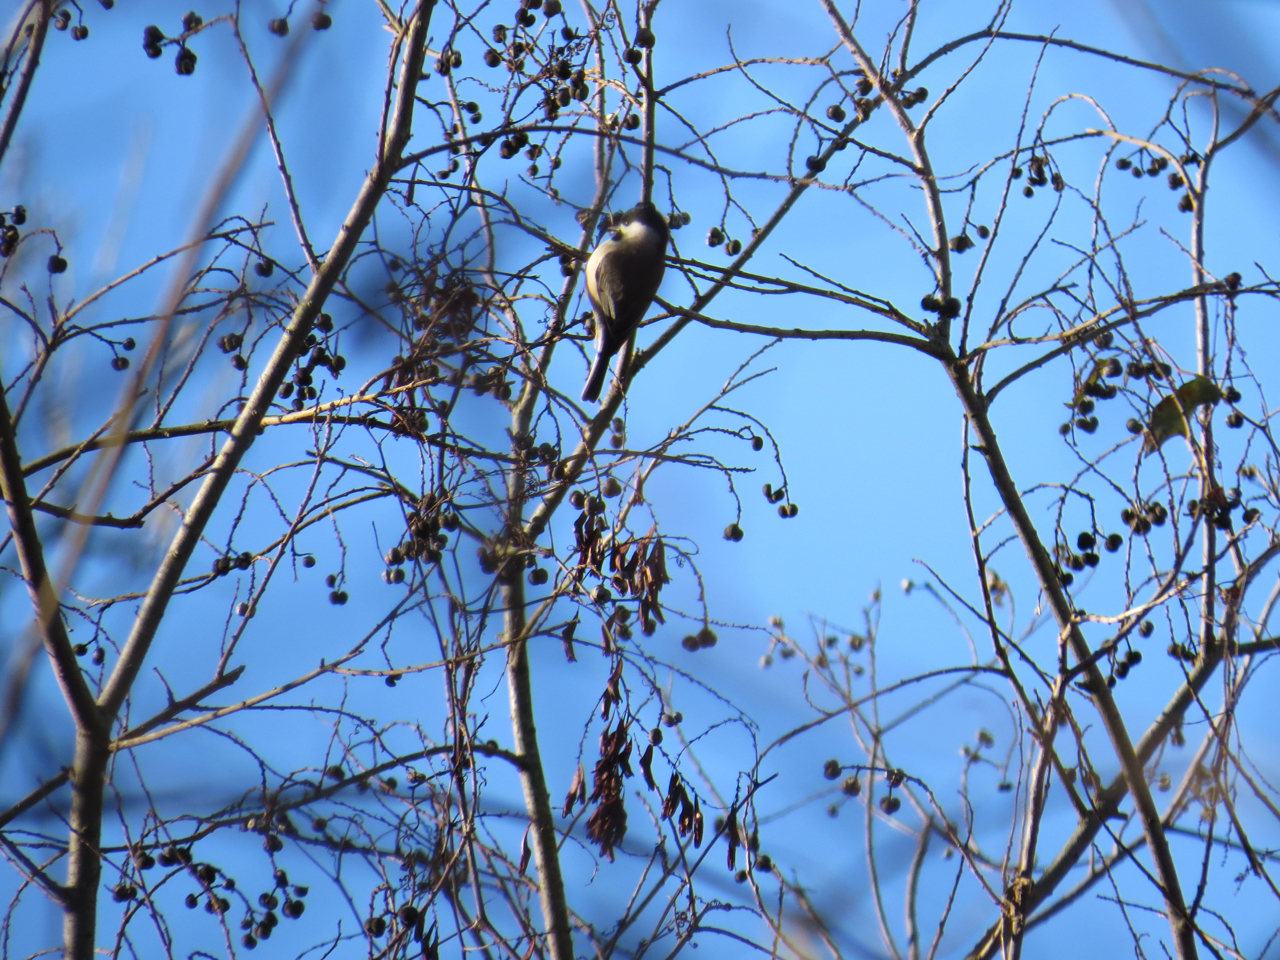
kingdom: Animalia
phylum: Chordata
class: Aves
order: Passeriformes
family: Paridae
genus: Poecile
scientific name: Poecile carolinensis
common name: Carolina chickadee
